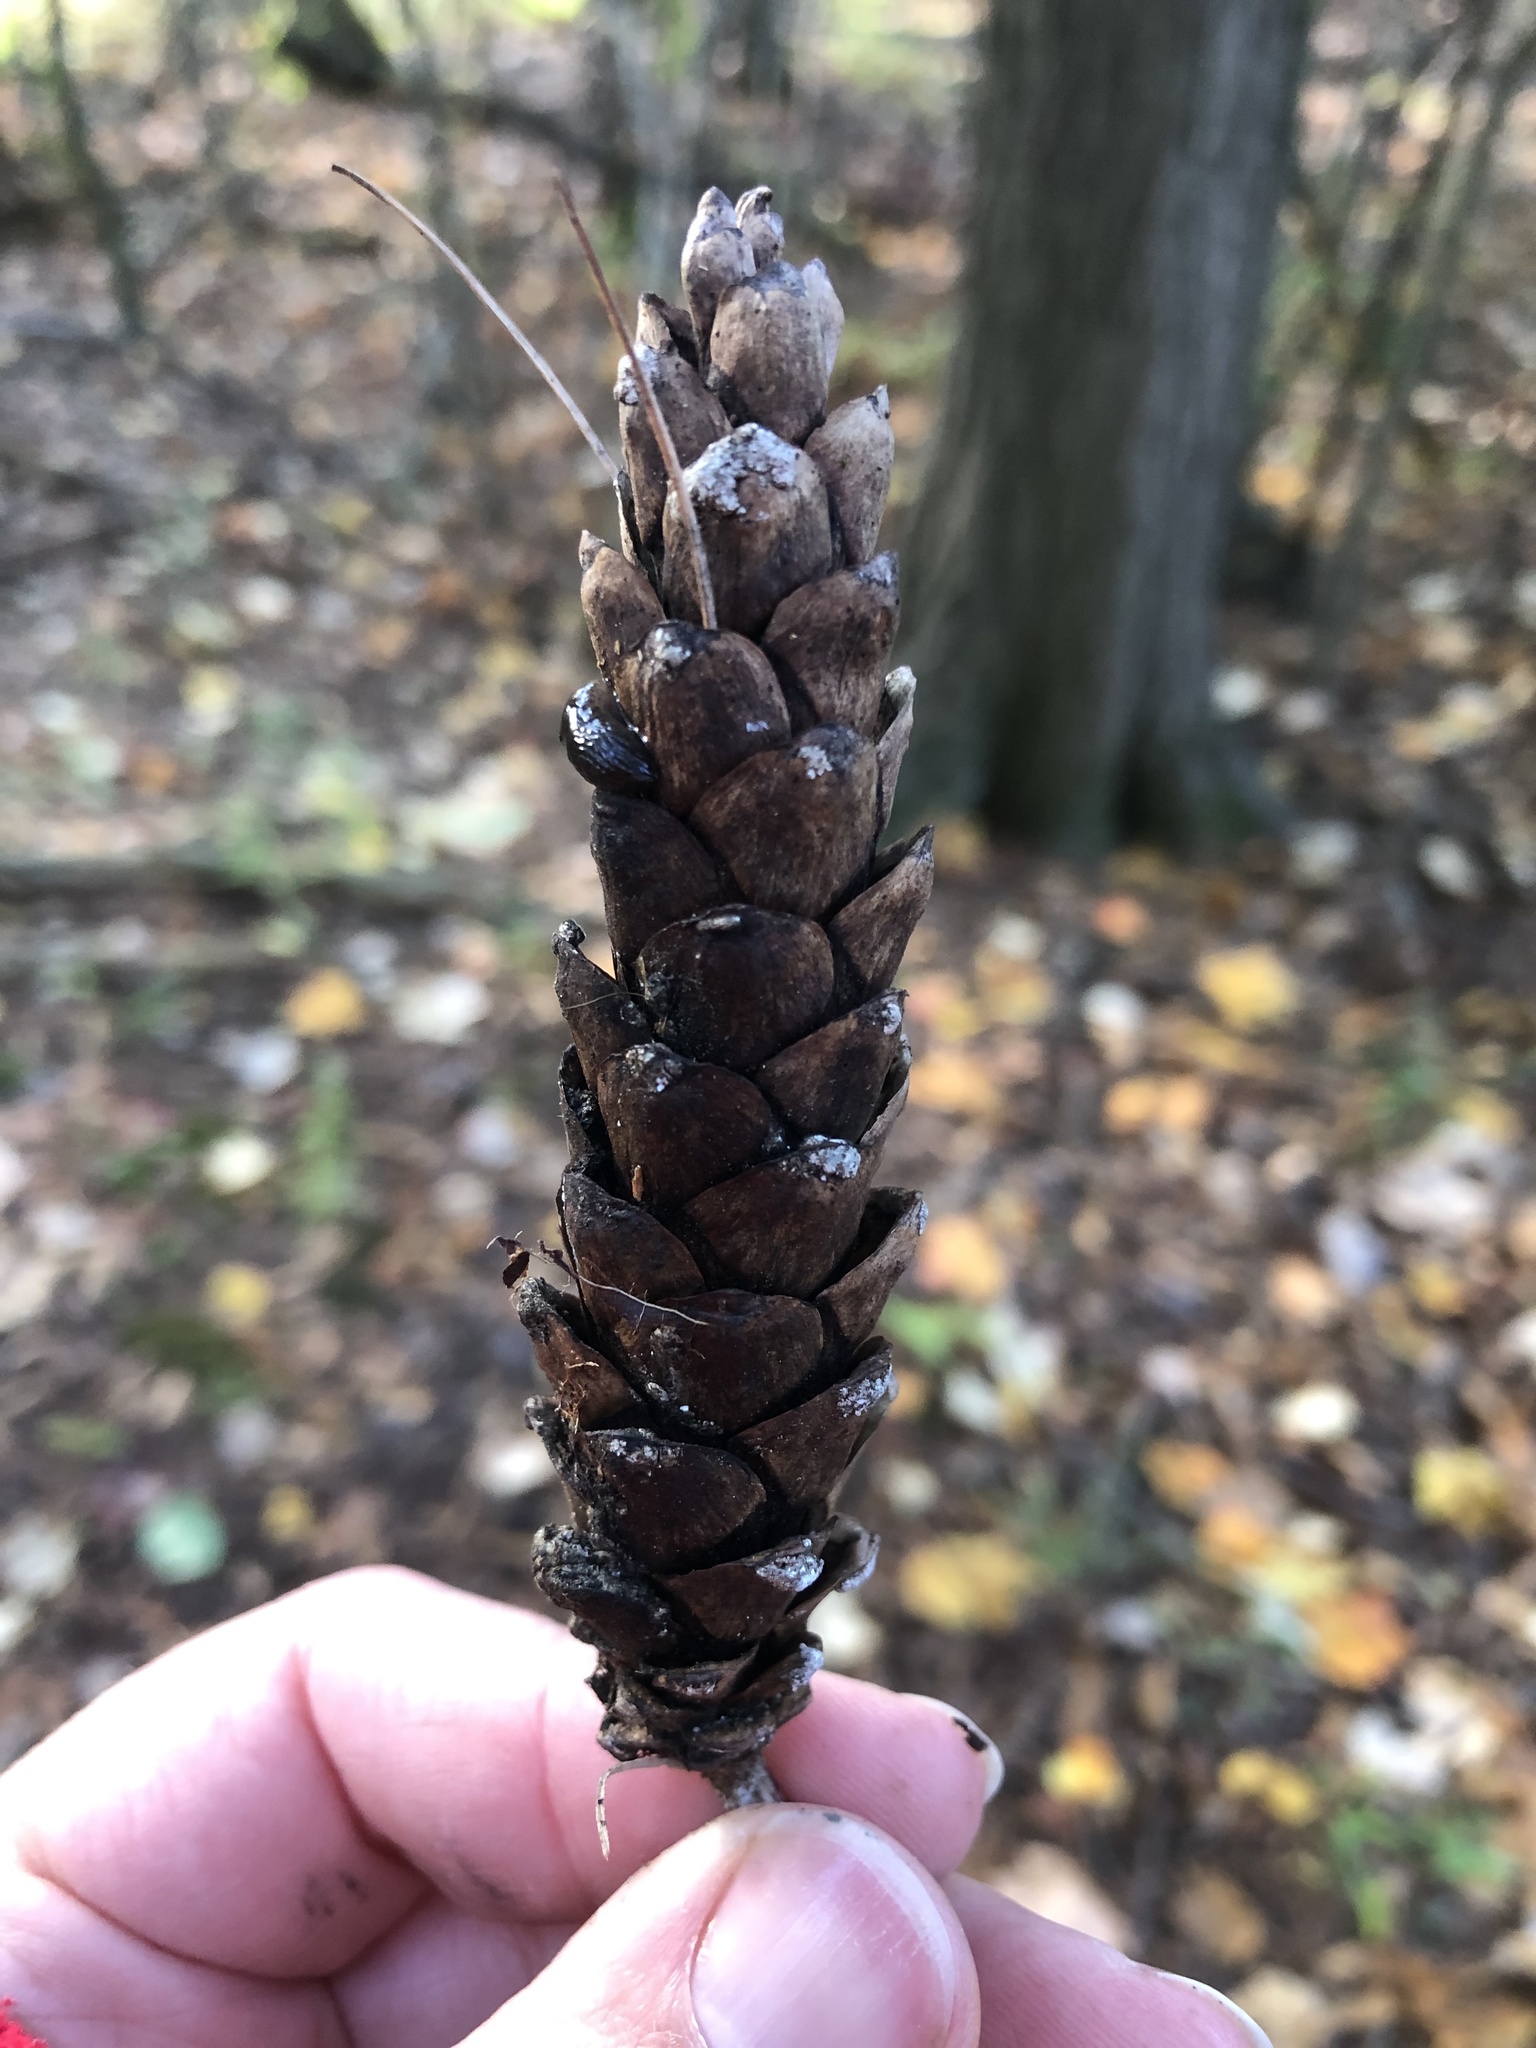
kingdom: Plantae
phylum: Tracheophyta
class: Pinopsida
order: Pinales
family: Pinaceae
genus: Pinus
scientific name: Pinus strobus
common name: Weymouth pine
